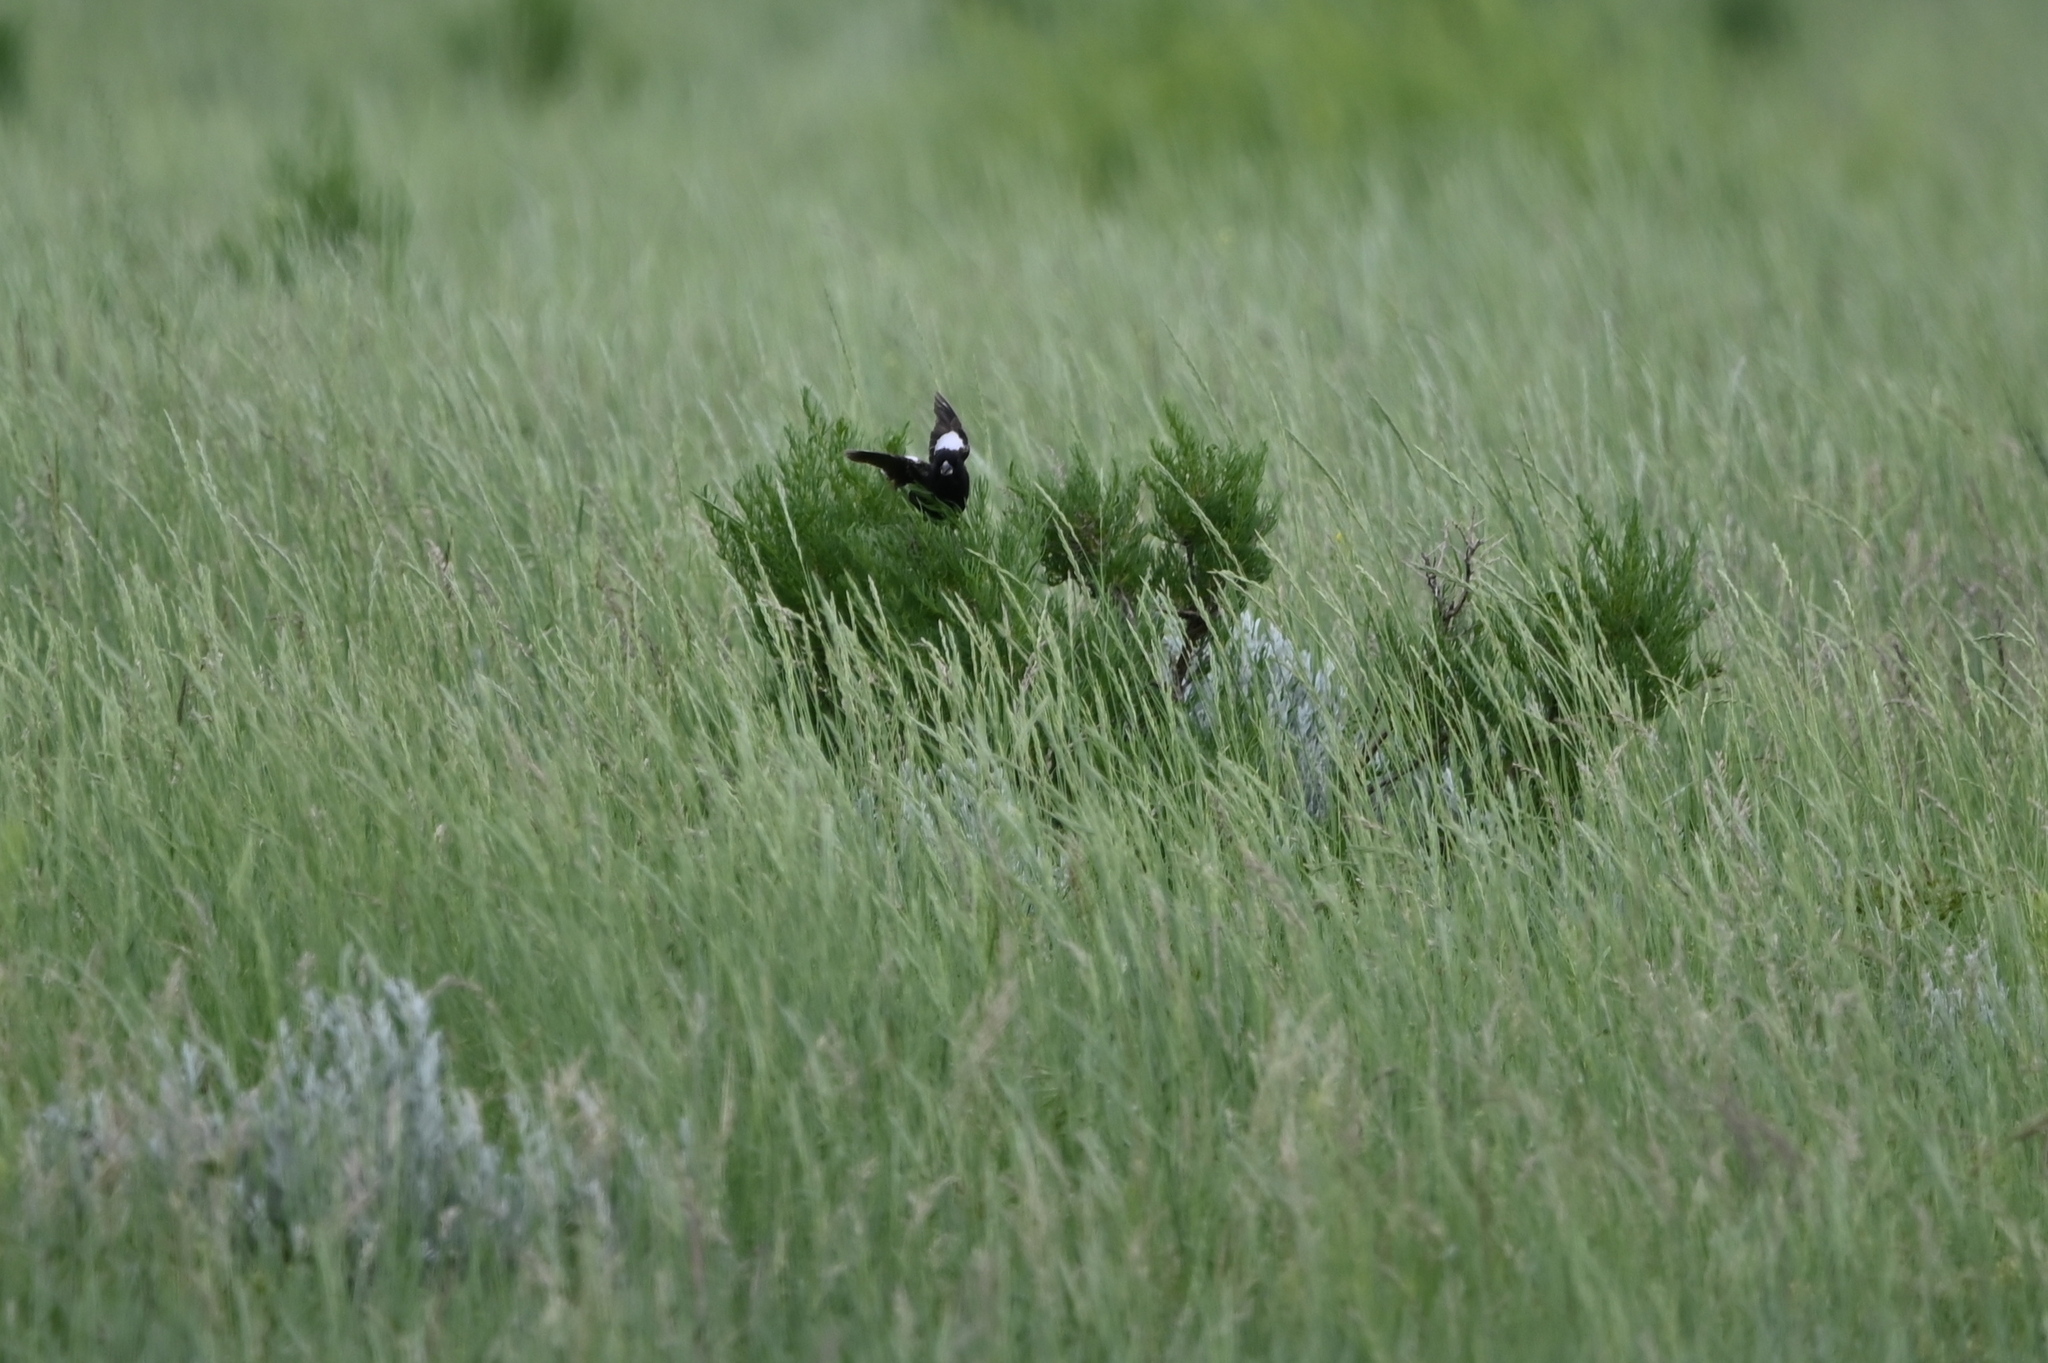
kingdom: Animalia
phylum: Chordata
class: Aves
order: Passeriformes
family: Passerellidae
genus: Calamospiza
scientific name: Calamospiza melanocorys
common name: Lark bunting
